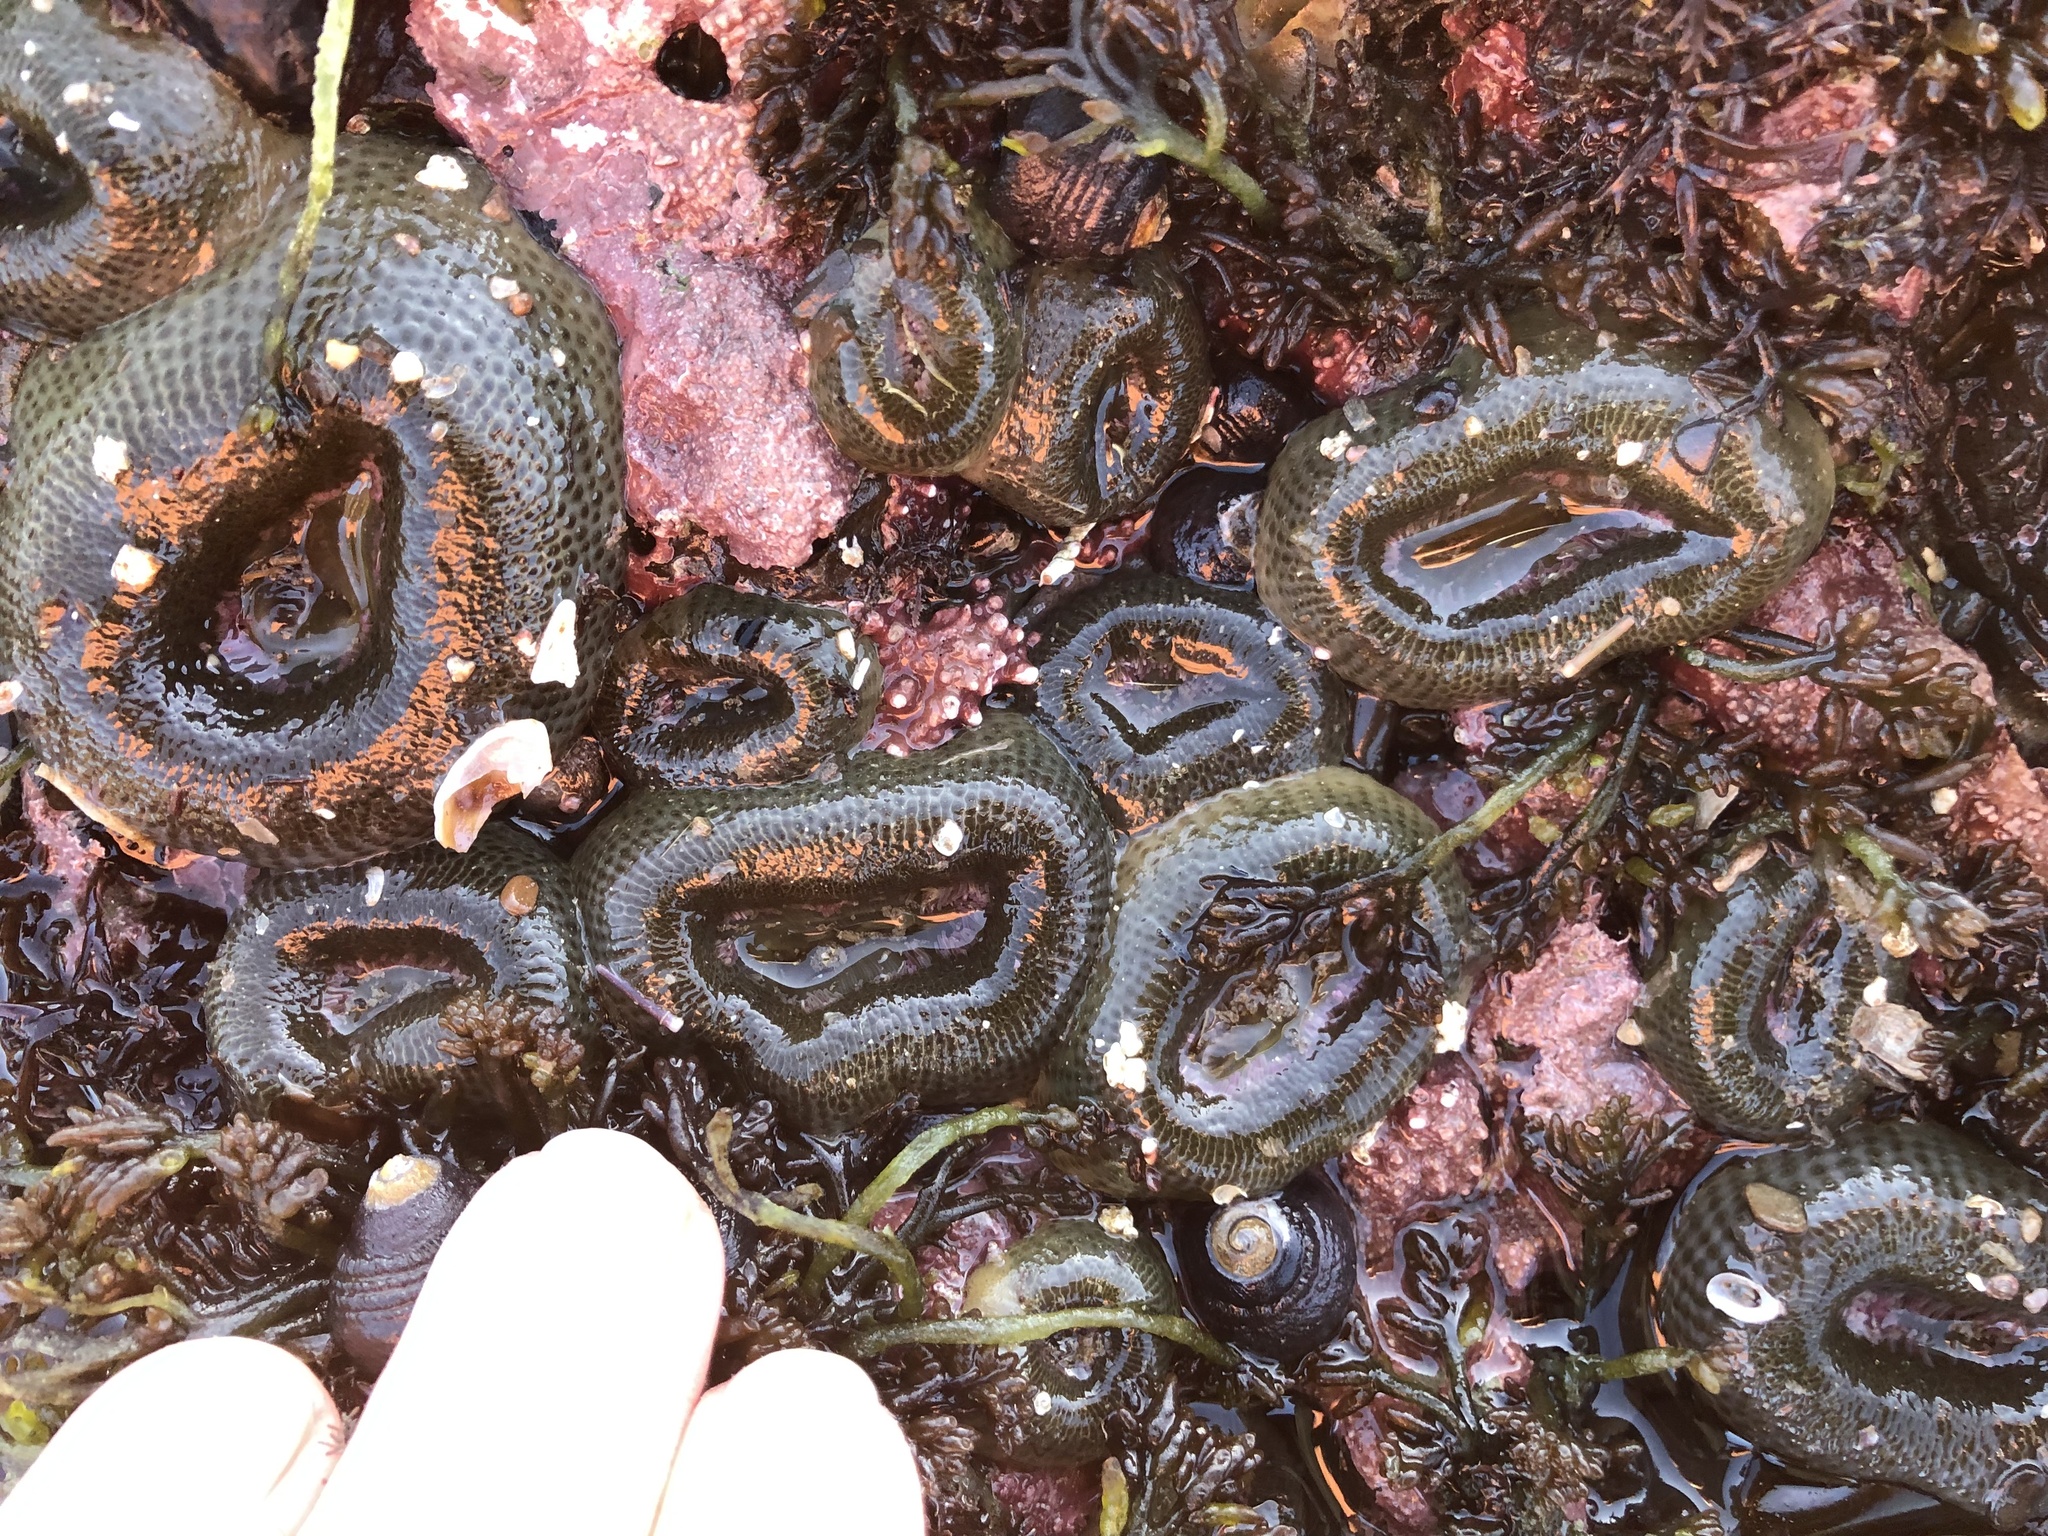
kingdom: Animalia
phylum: Cnidaria
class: Anthozoa
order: Actiniaria
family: Actiniidae
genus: Anthopleura
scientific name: Anthopleura elegantissima
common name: Clonal anemone
